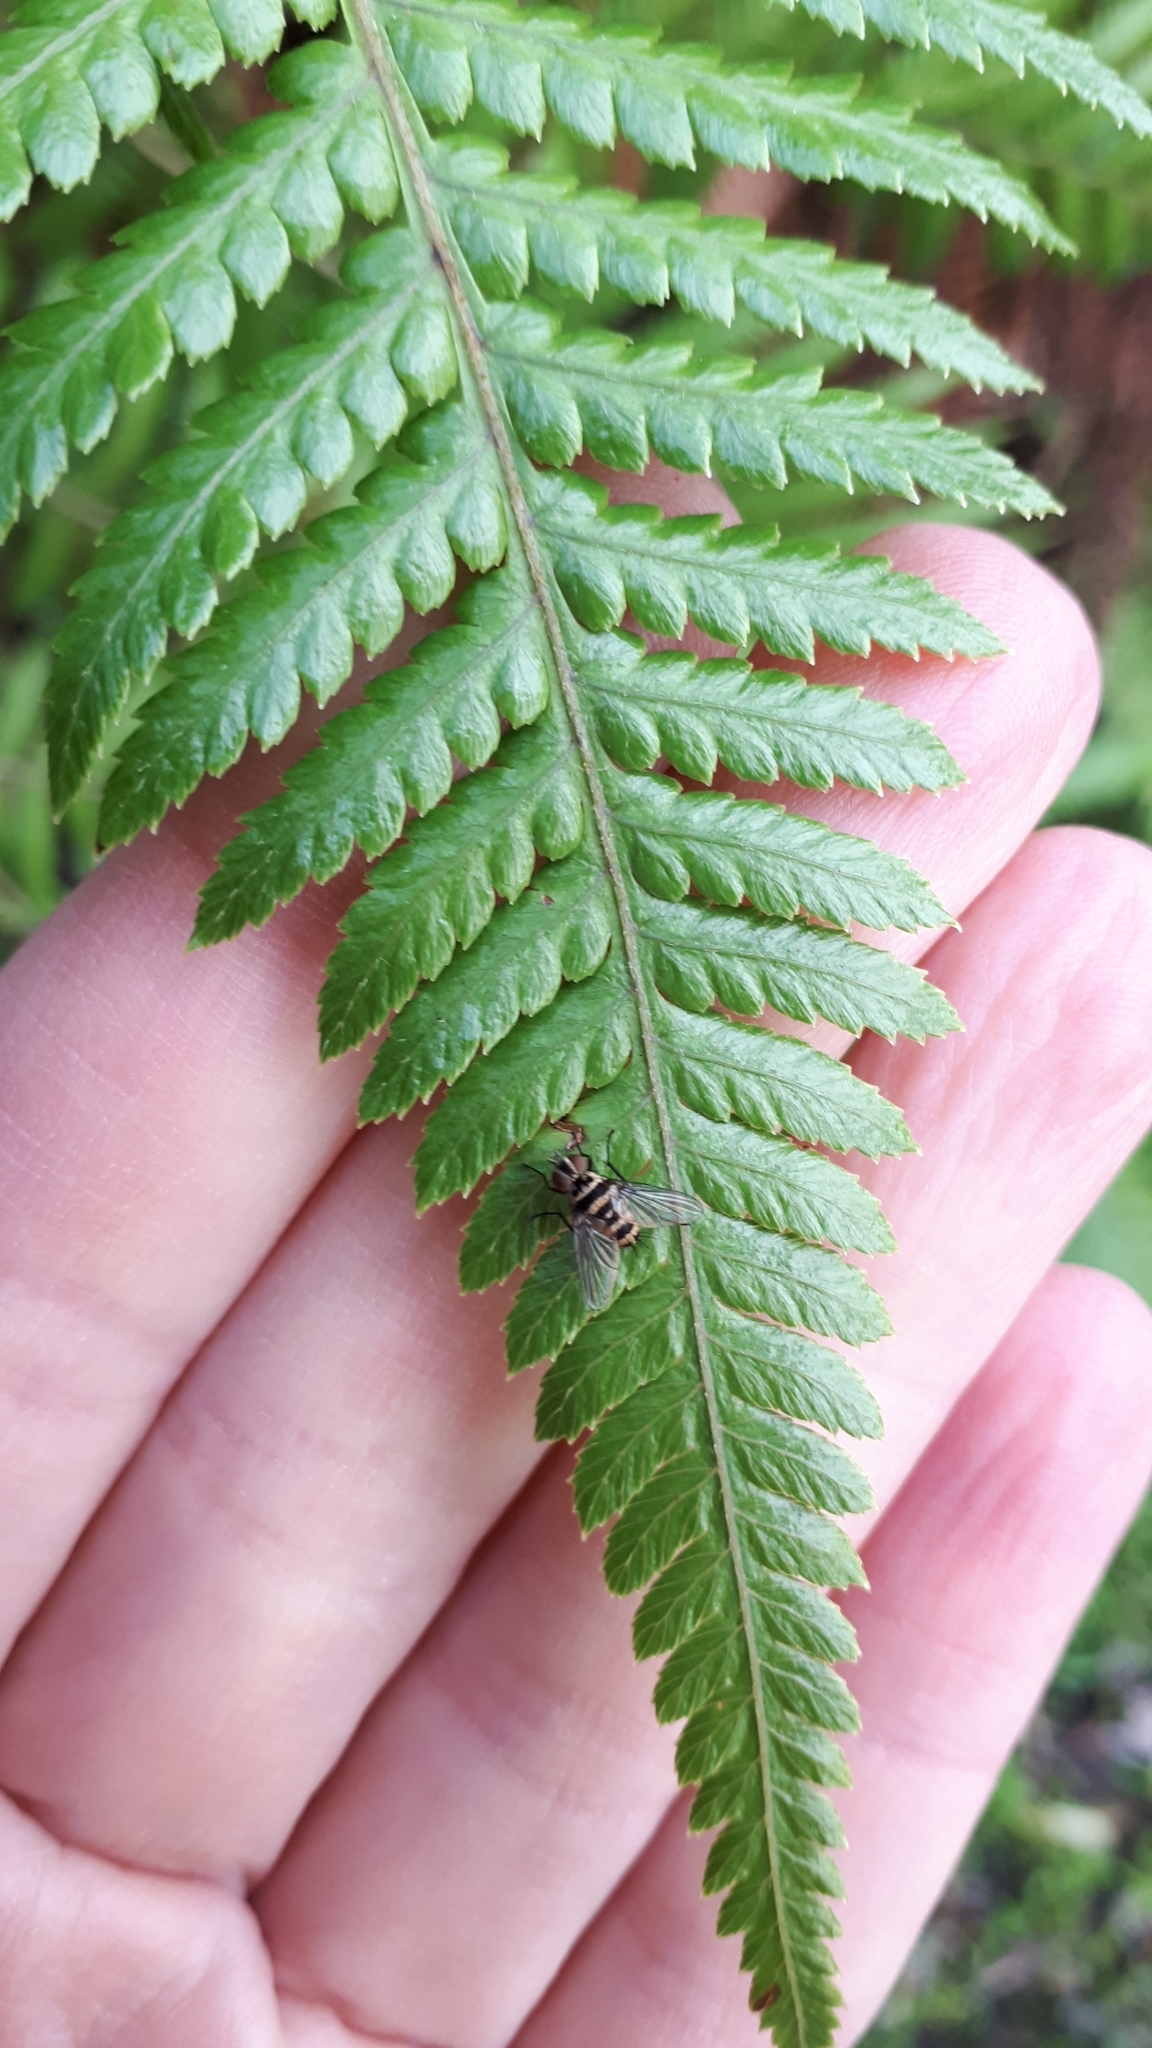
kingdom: Animalia
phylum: Arthropoda
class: Insecta
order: Diptera
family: Tachinidae
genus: Trigonospila
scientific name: Trigonospila brevifacies
